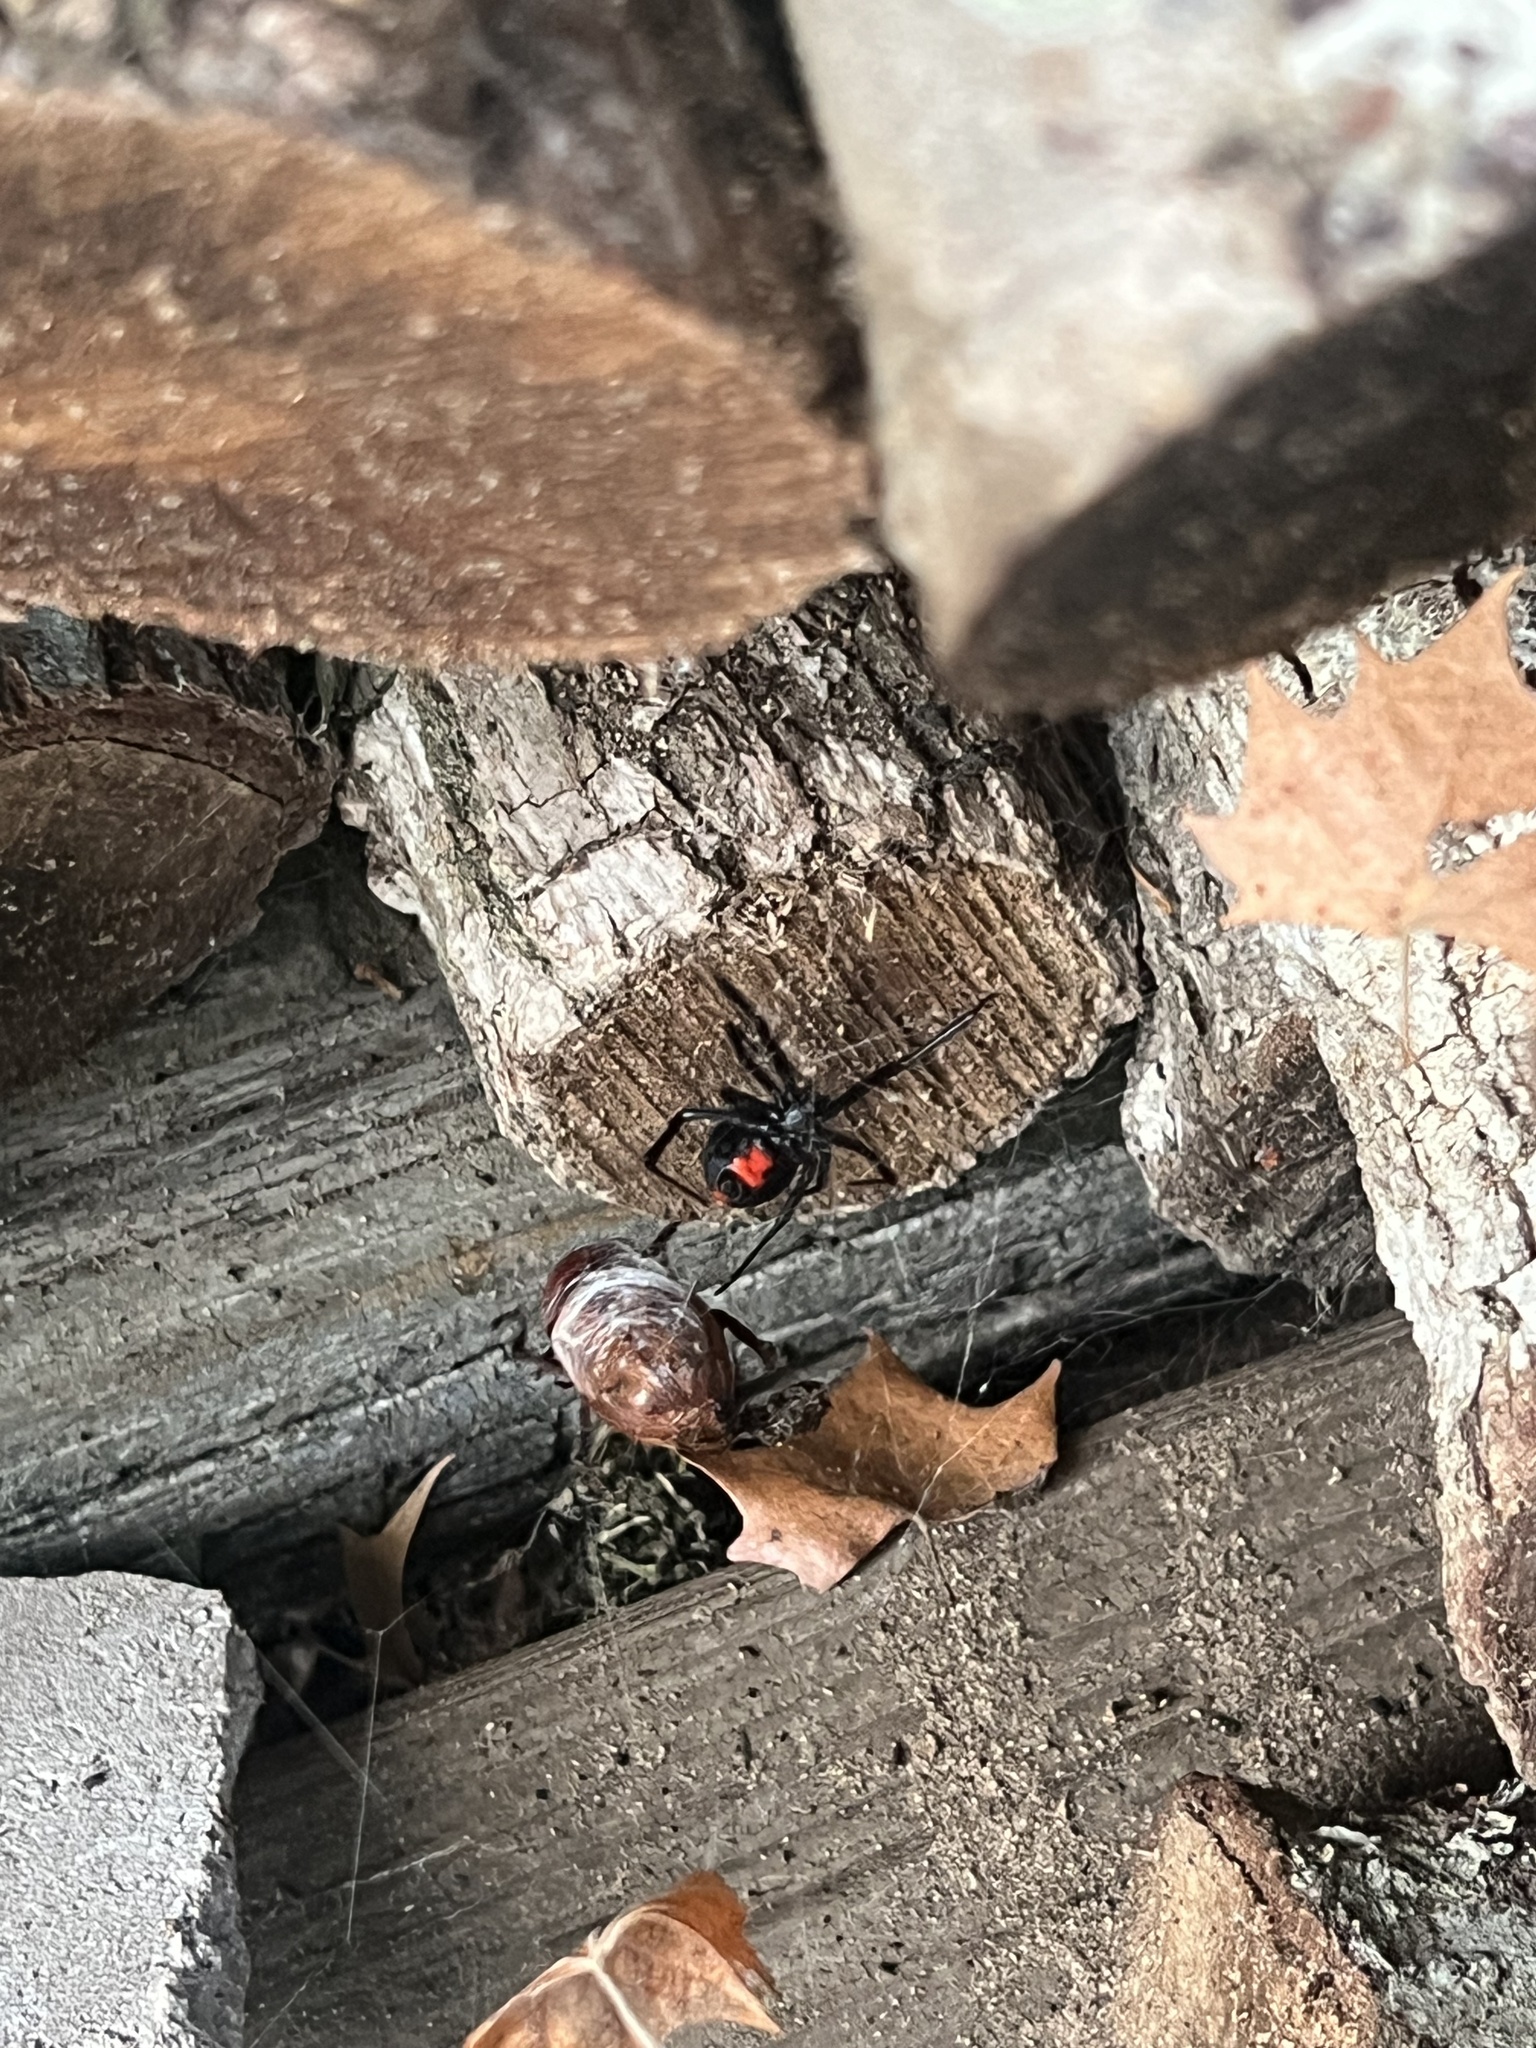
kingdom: Animalia
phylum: Arthropoda
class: Arachnida
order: Araneae
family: Theridiidae
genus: Latrodectus
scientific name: Latrodectus mactans
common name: Cobweb spiders
